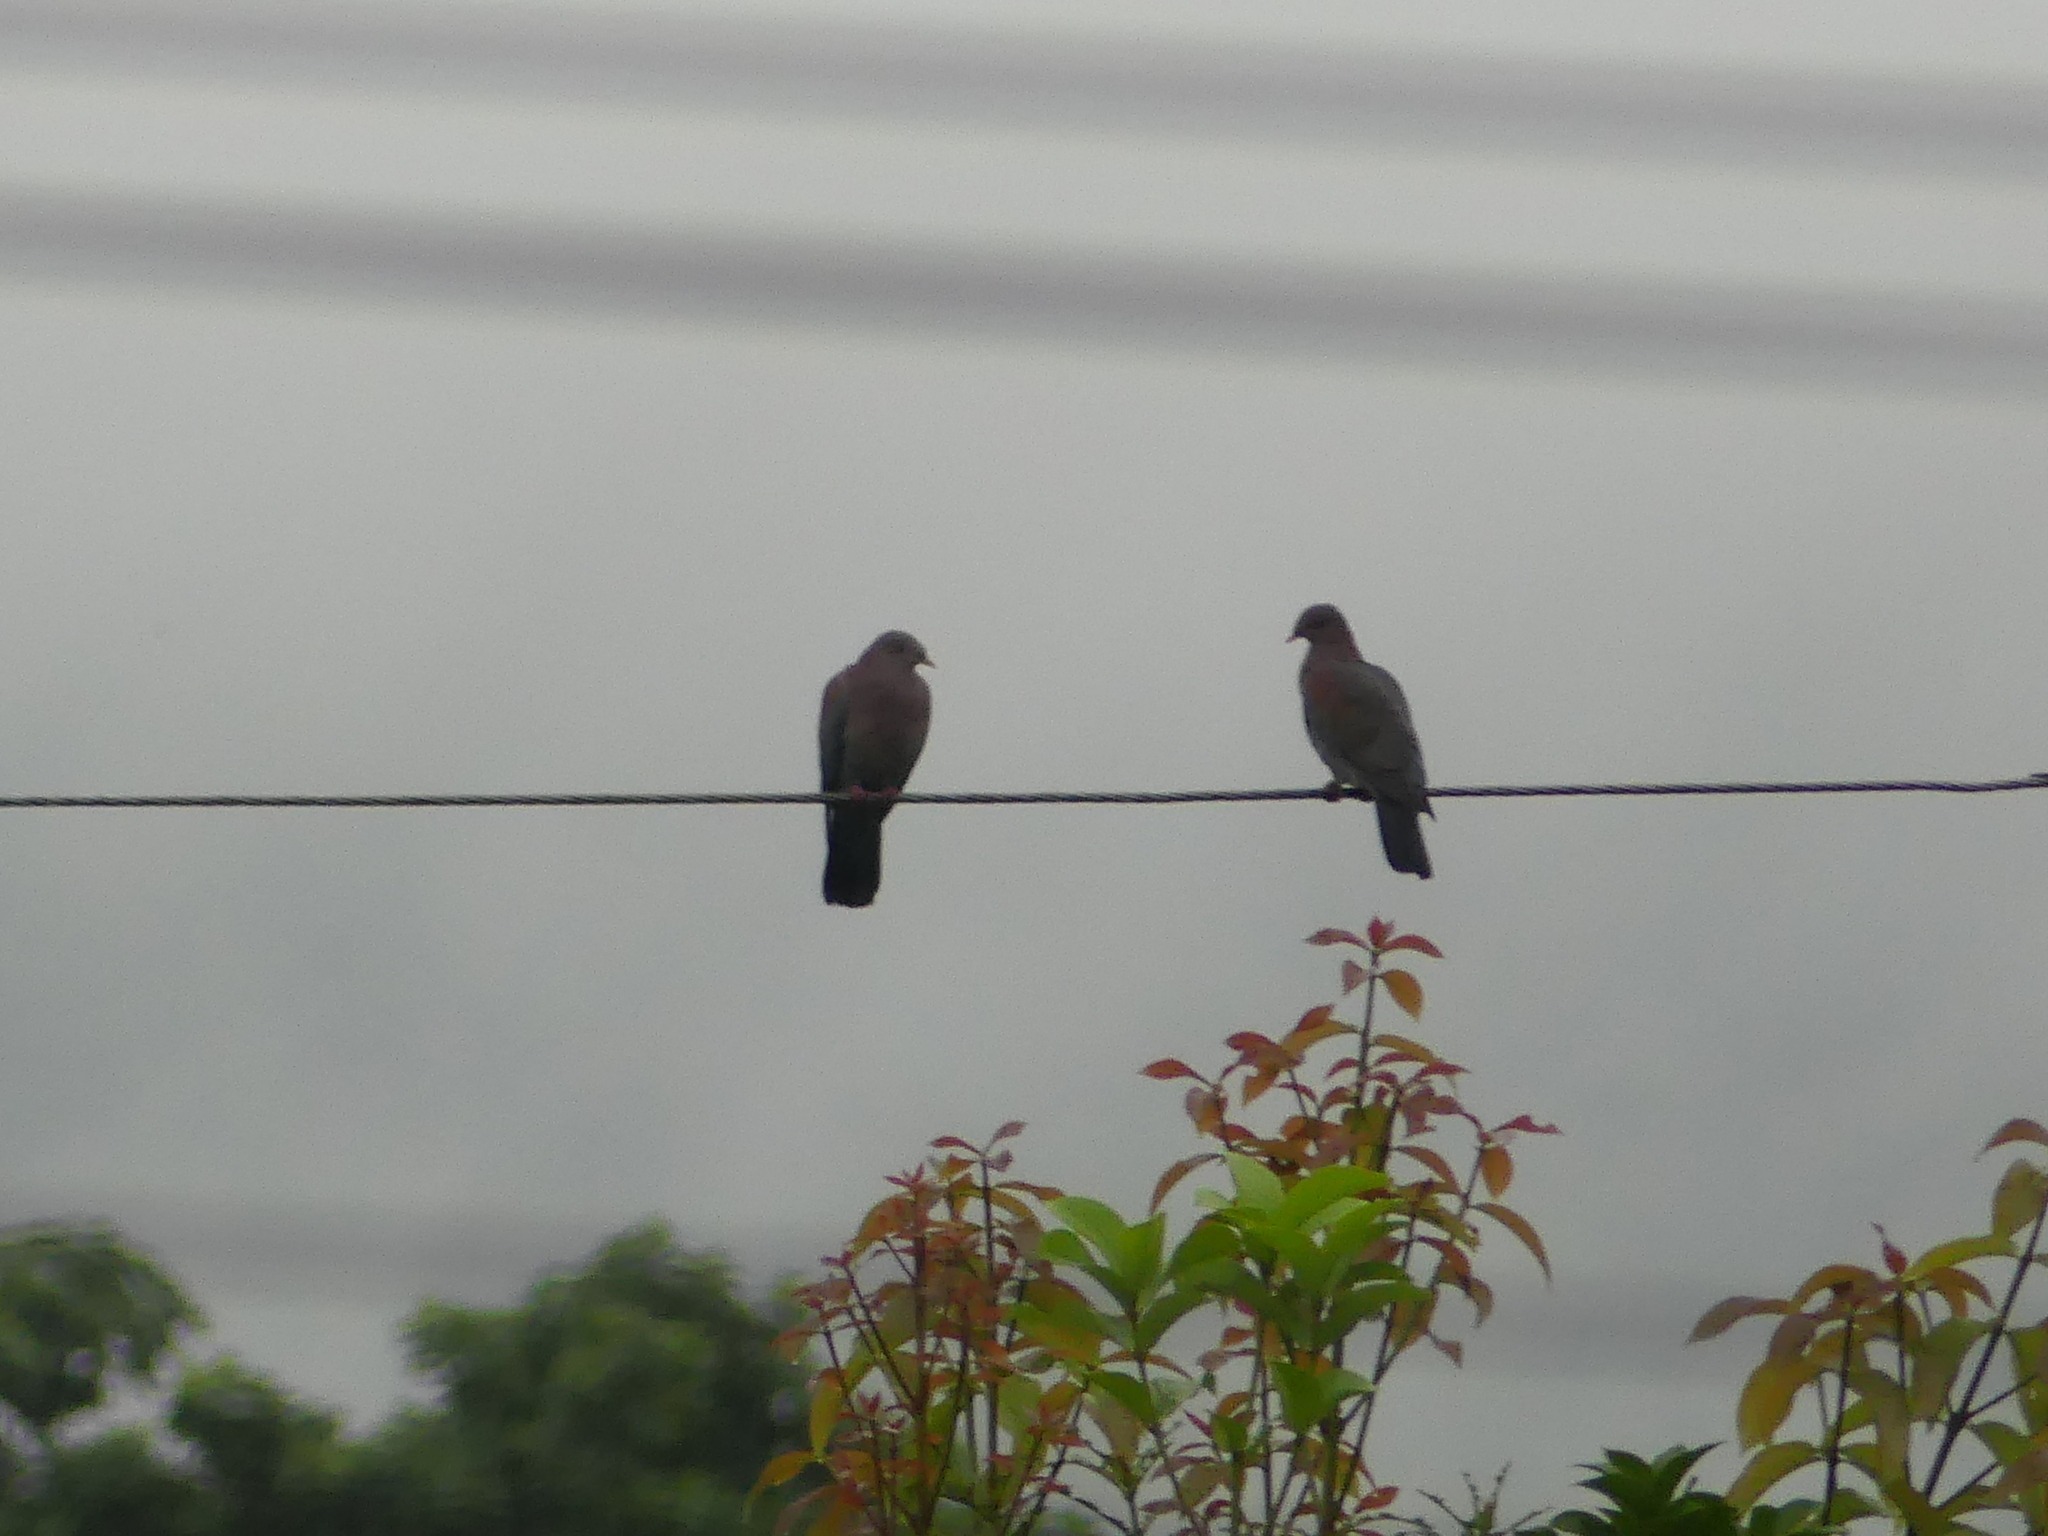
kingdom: Animalia
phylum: Chordata
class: Aves
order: Columbiformes
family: Columbidae
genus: Patagioenas
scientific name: Patagioenas flavirostris
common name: Red-billed pigeon
